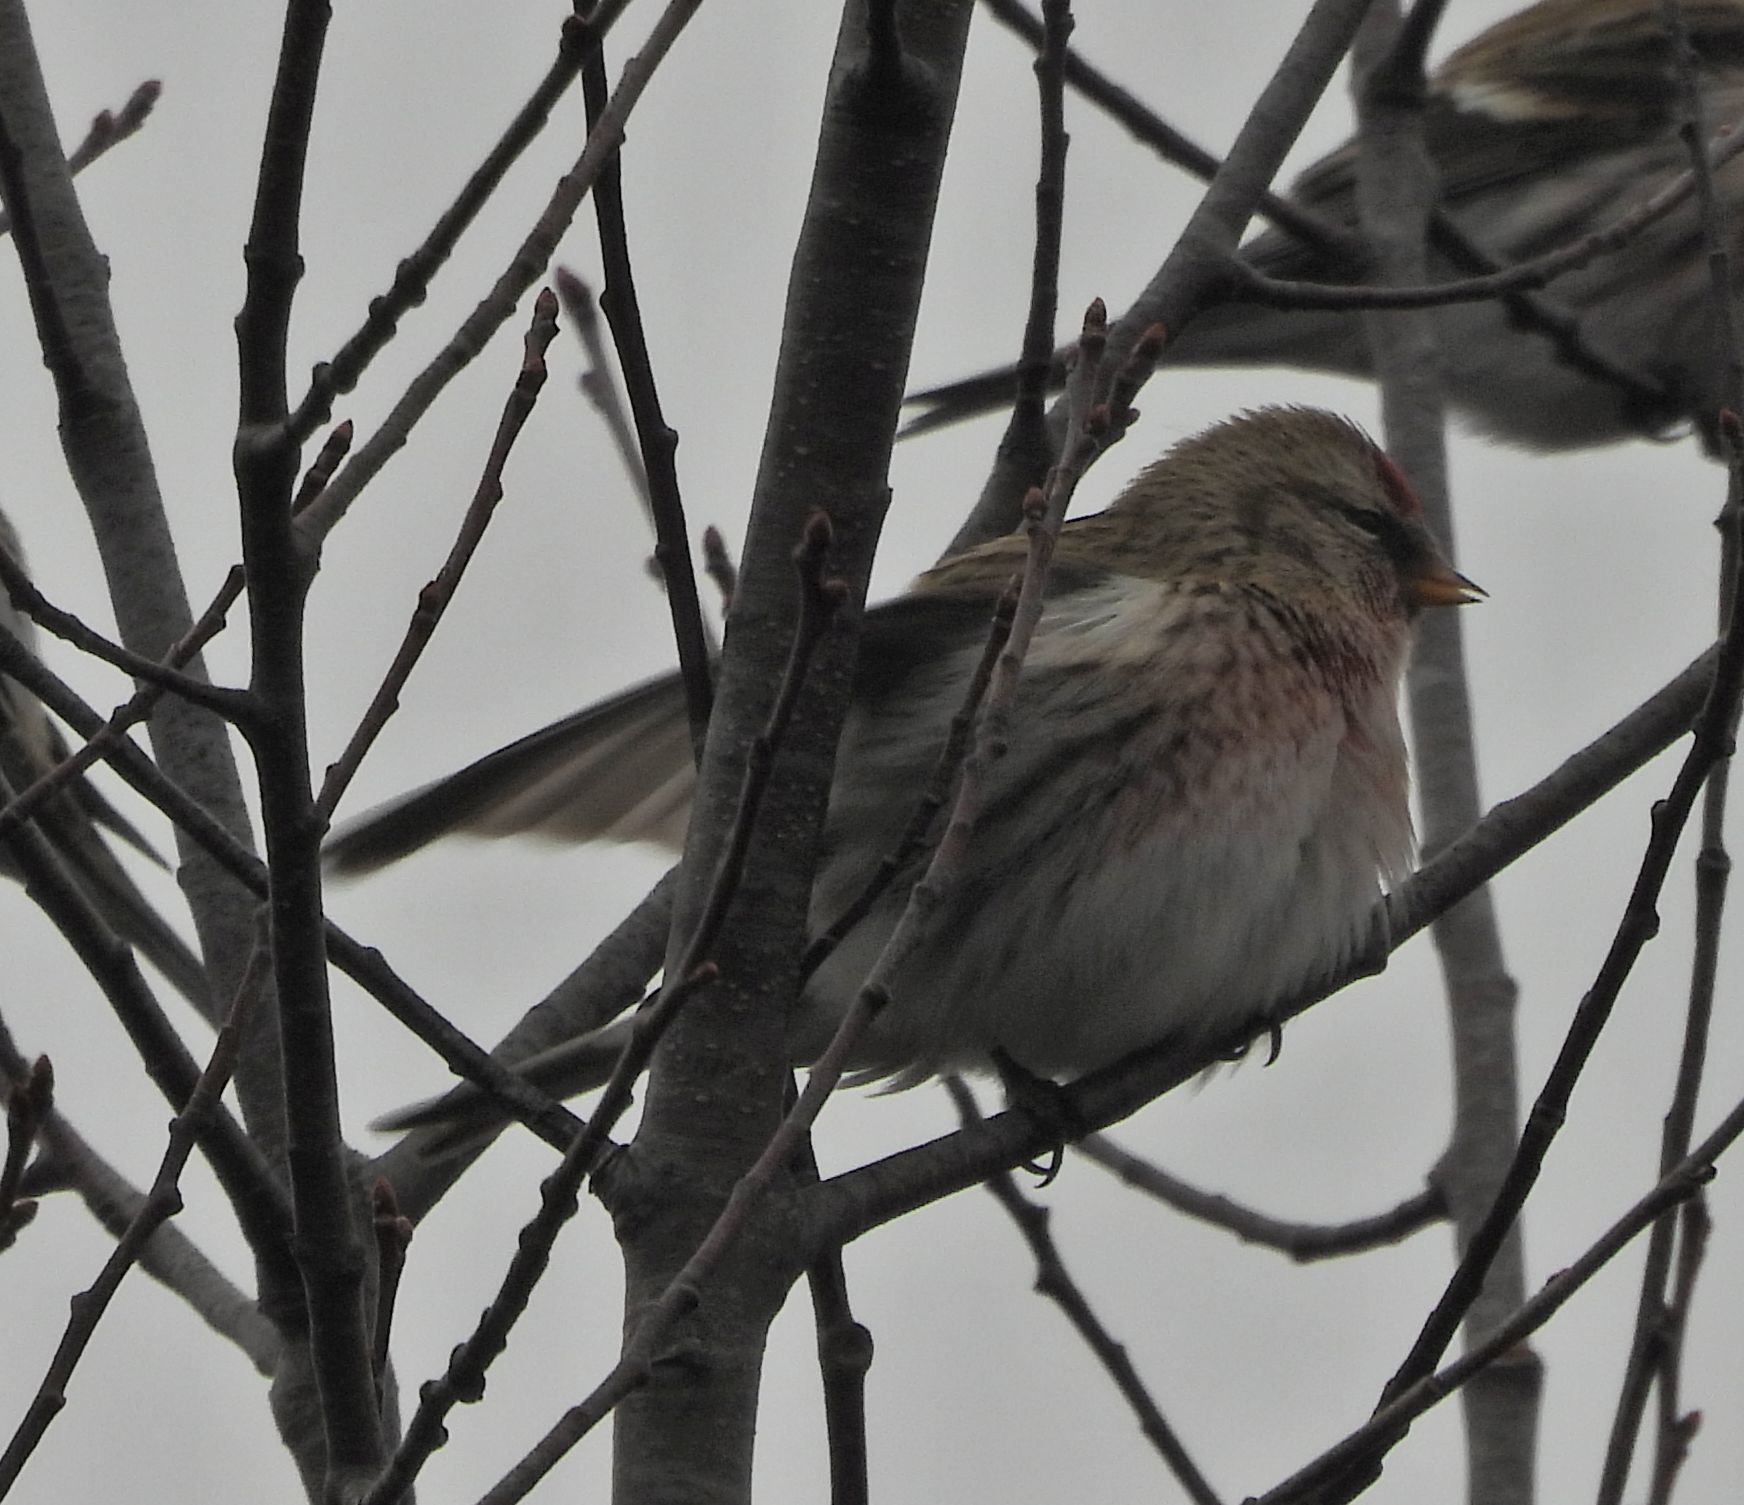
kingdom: Animalia
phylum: Chordata
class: Aves
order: Passeriformes
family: Fringillidae
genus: Acanthis
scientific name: Acanthis flammea
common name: Common redpoll
